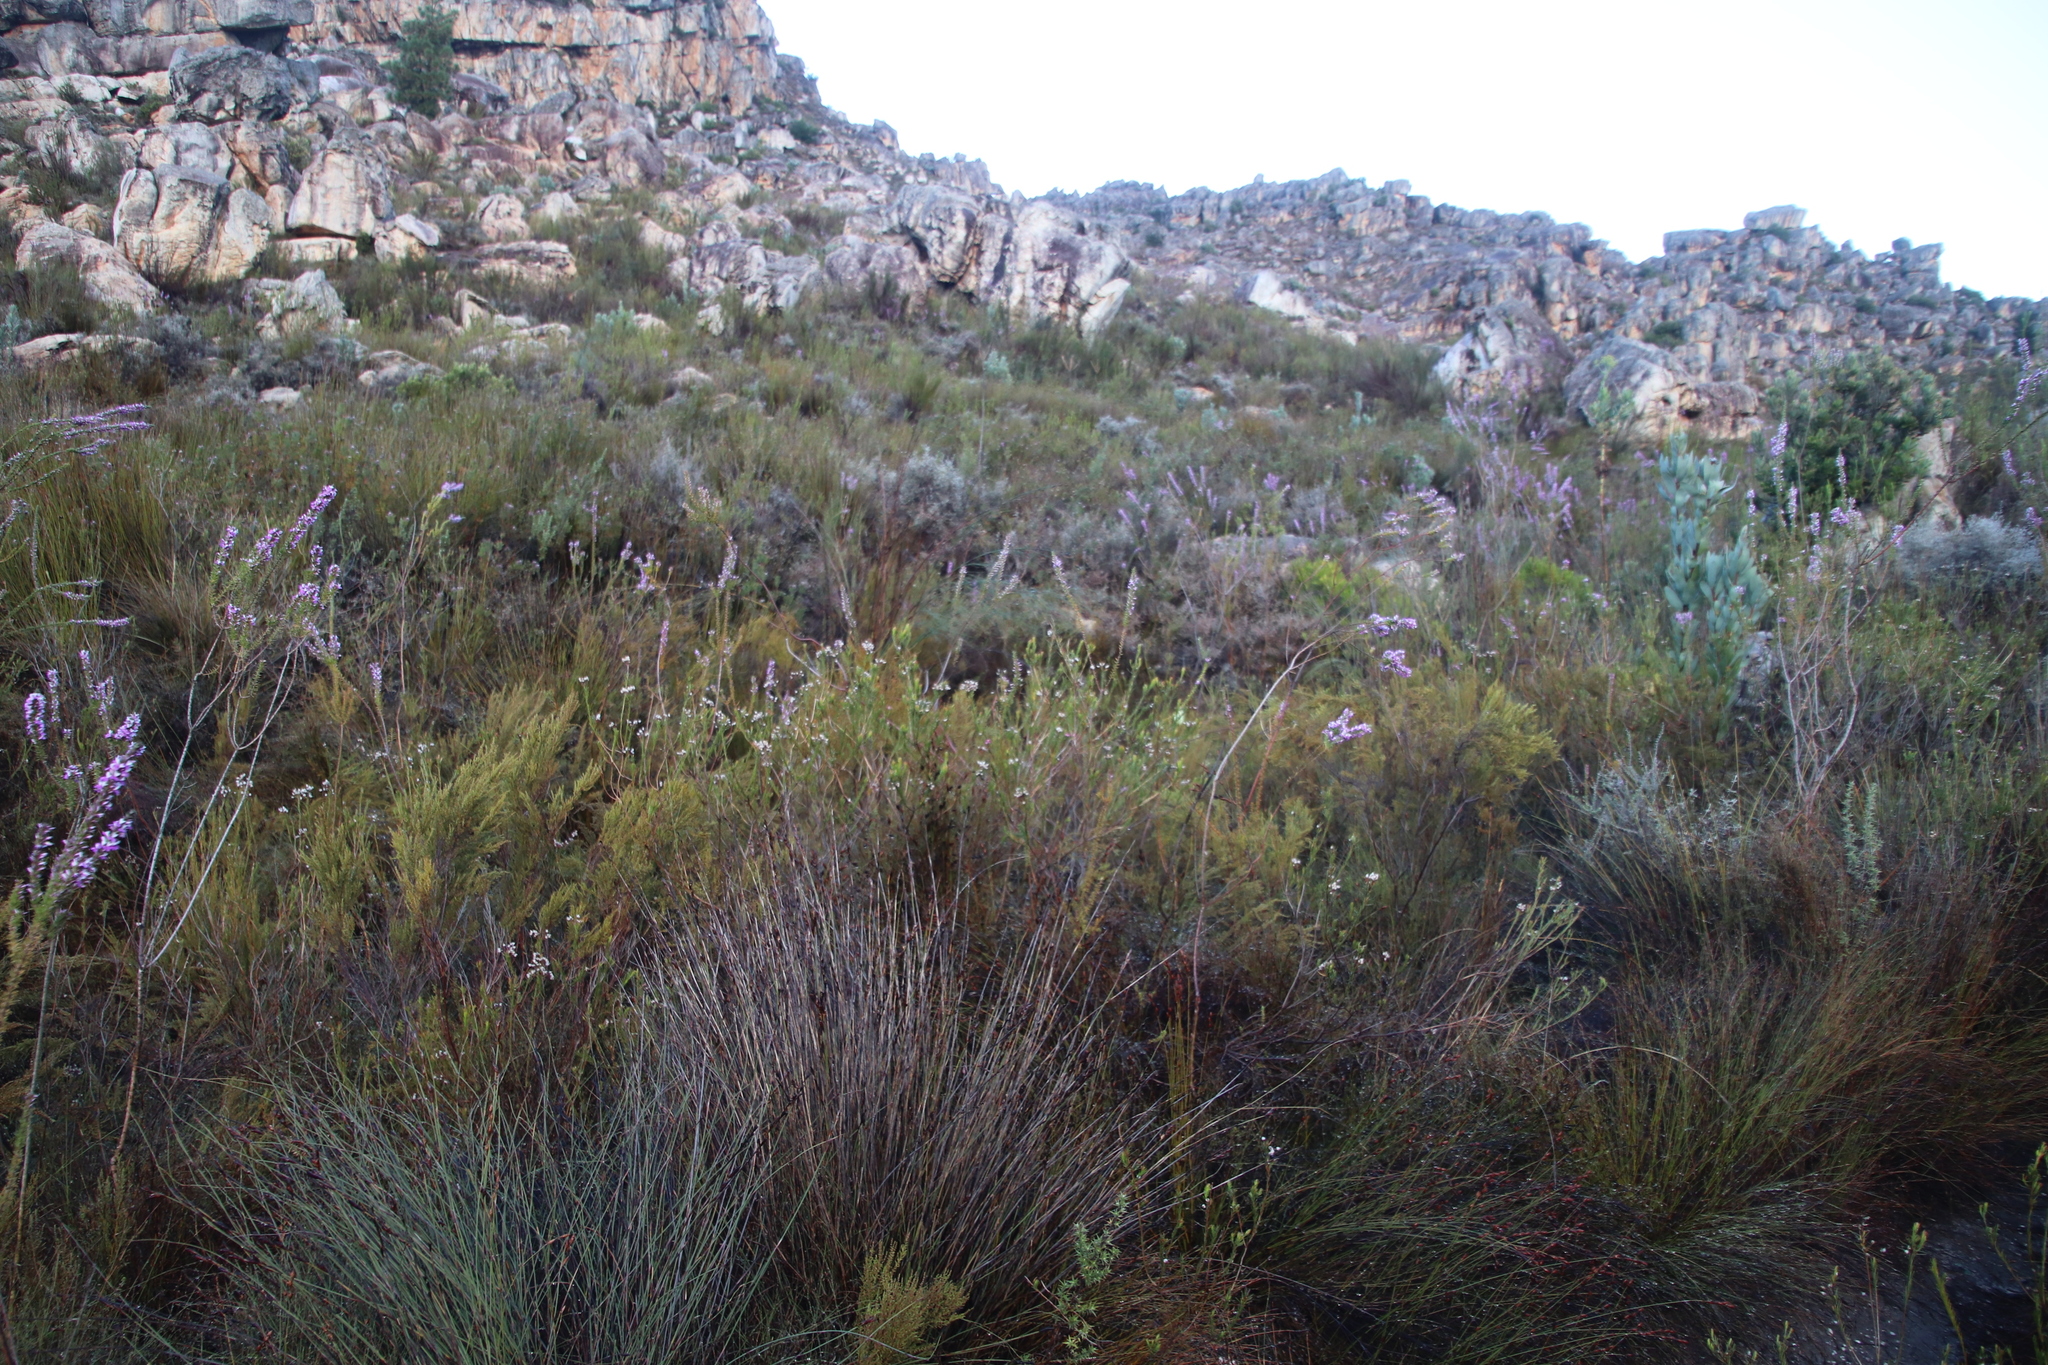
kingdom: Plantae
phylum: Tracheophyta
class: Magnoliopsida
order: Ericales
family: Ericaceae
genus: Erica
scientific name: Erica inflata
